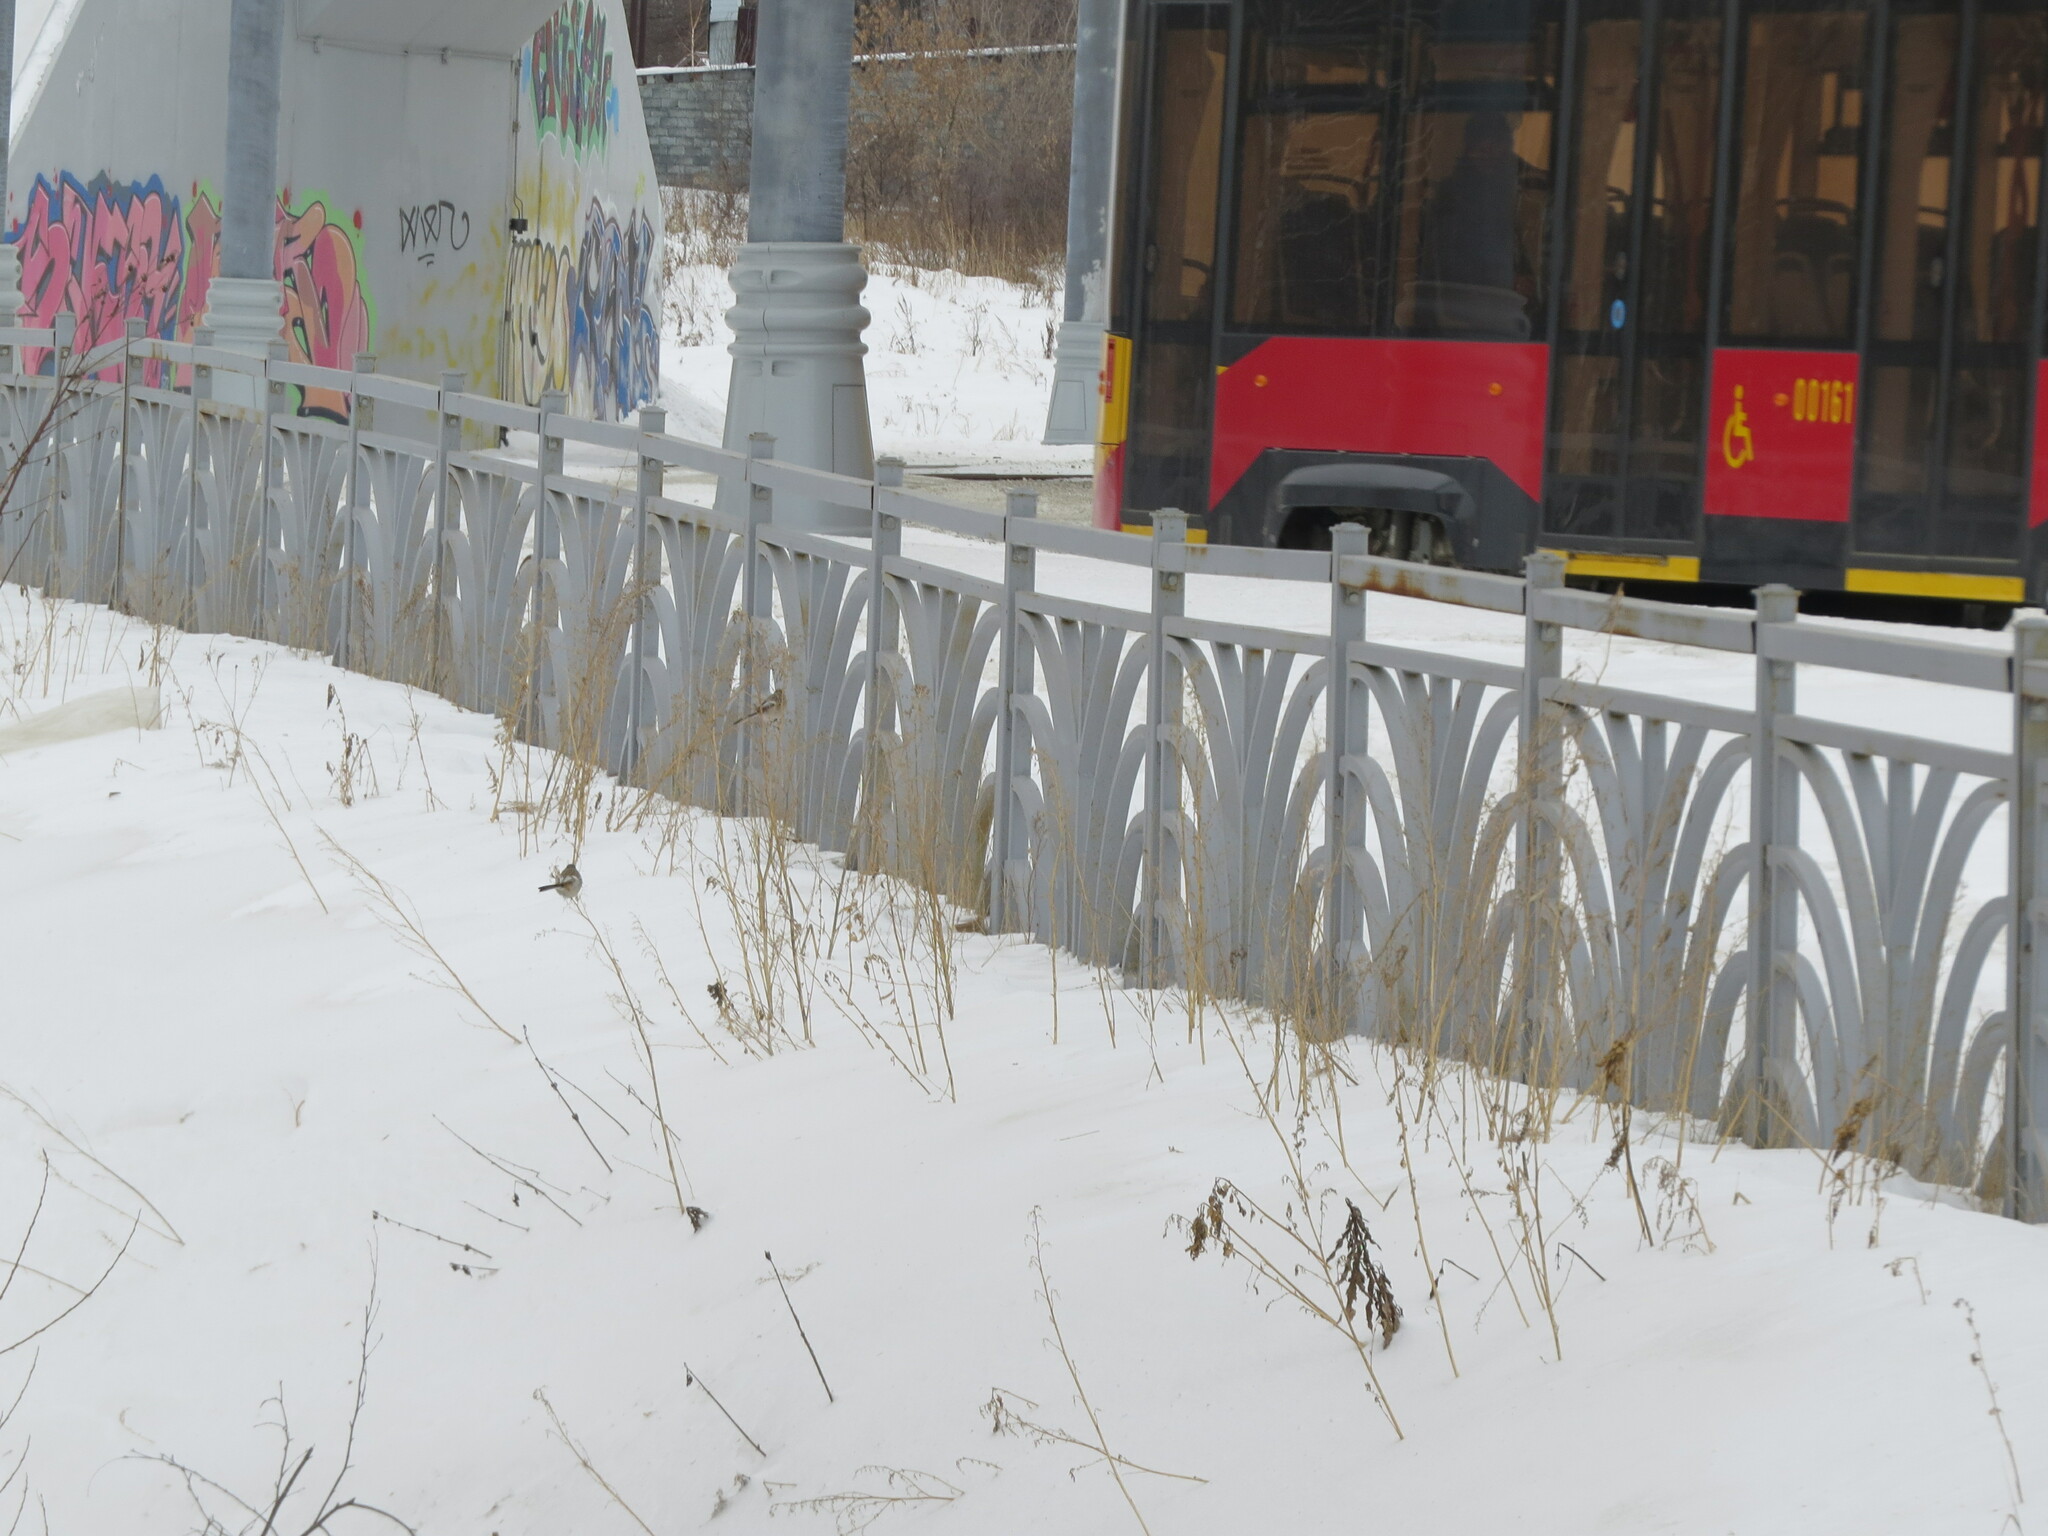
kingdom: Animalia
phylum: Chordata
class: Aves
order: Passeriformes
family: Fringillidae
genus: Carpodacus
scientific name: Carpodacus sibiricus
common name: Long-tailed rosefinch
